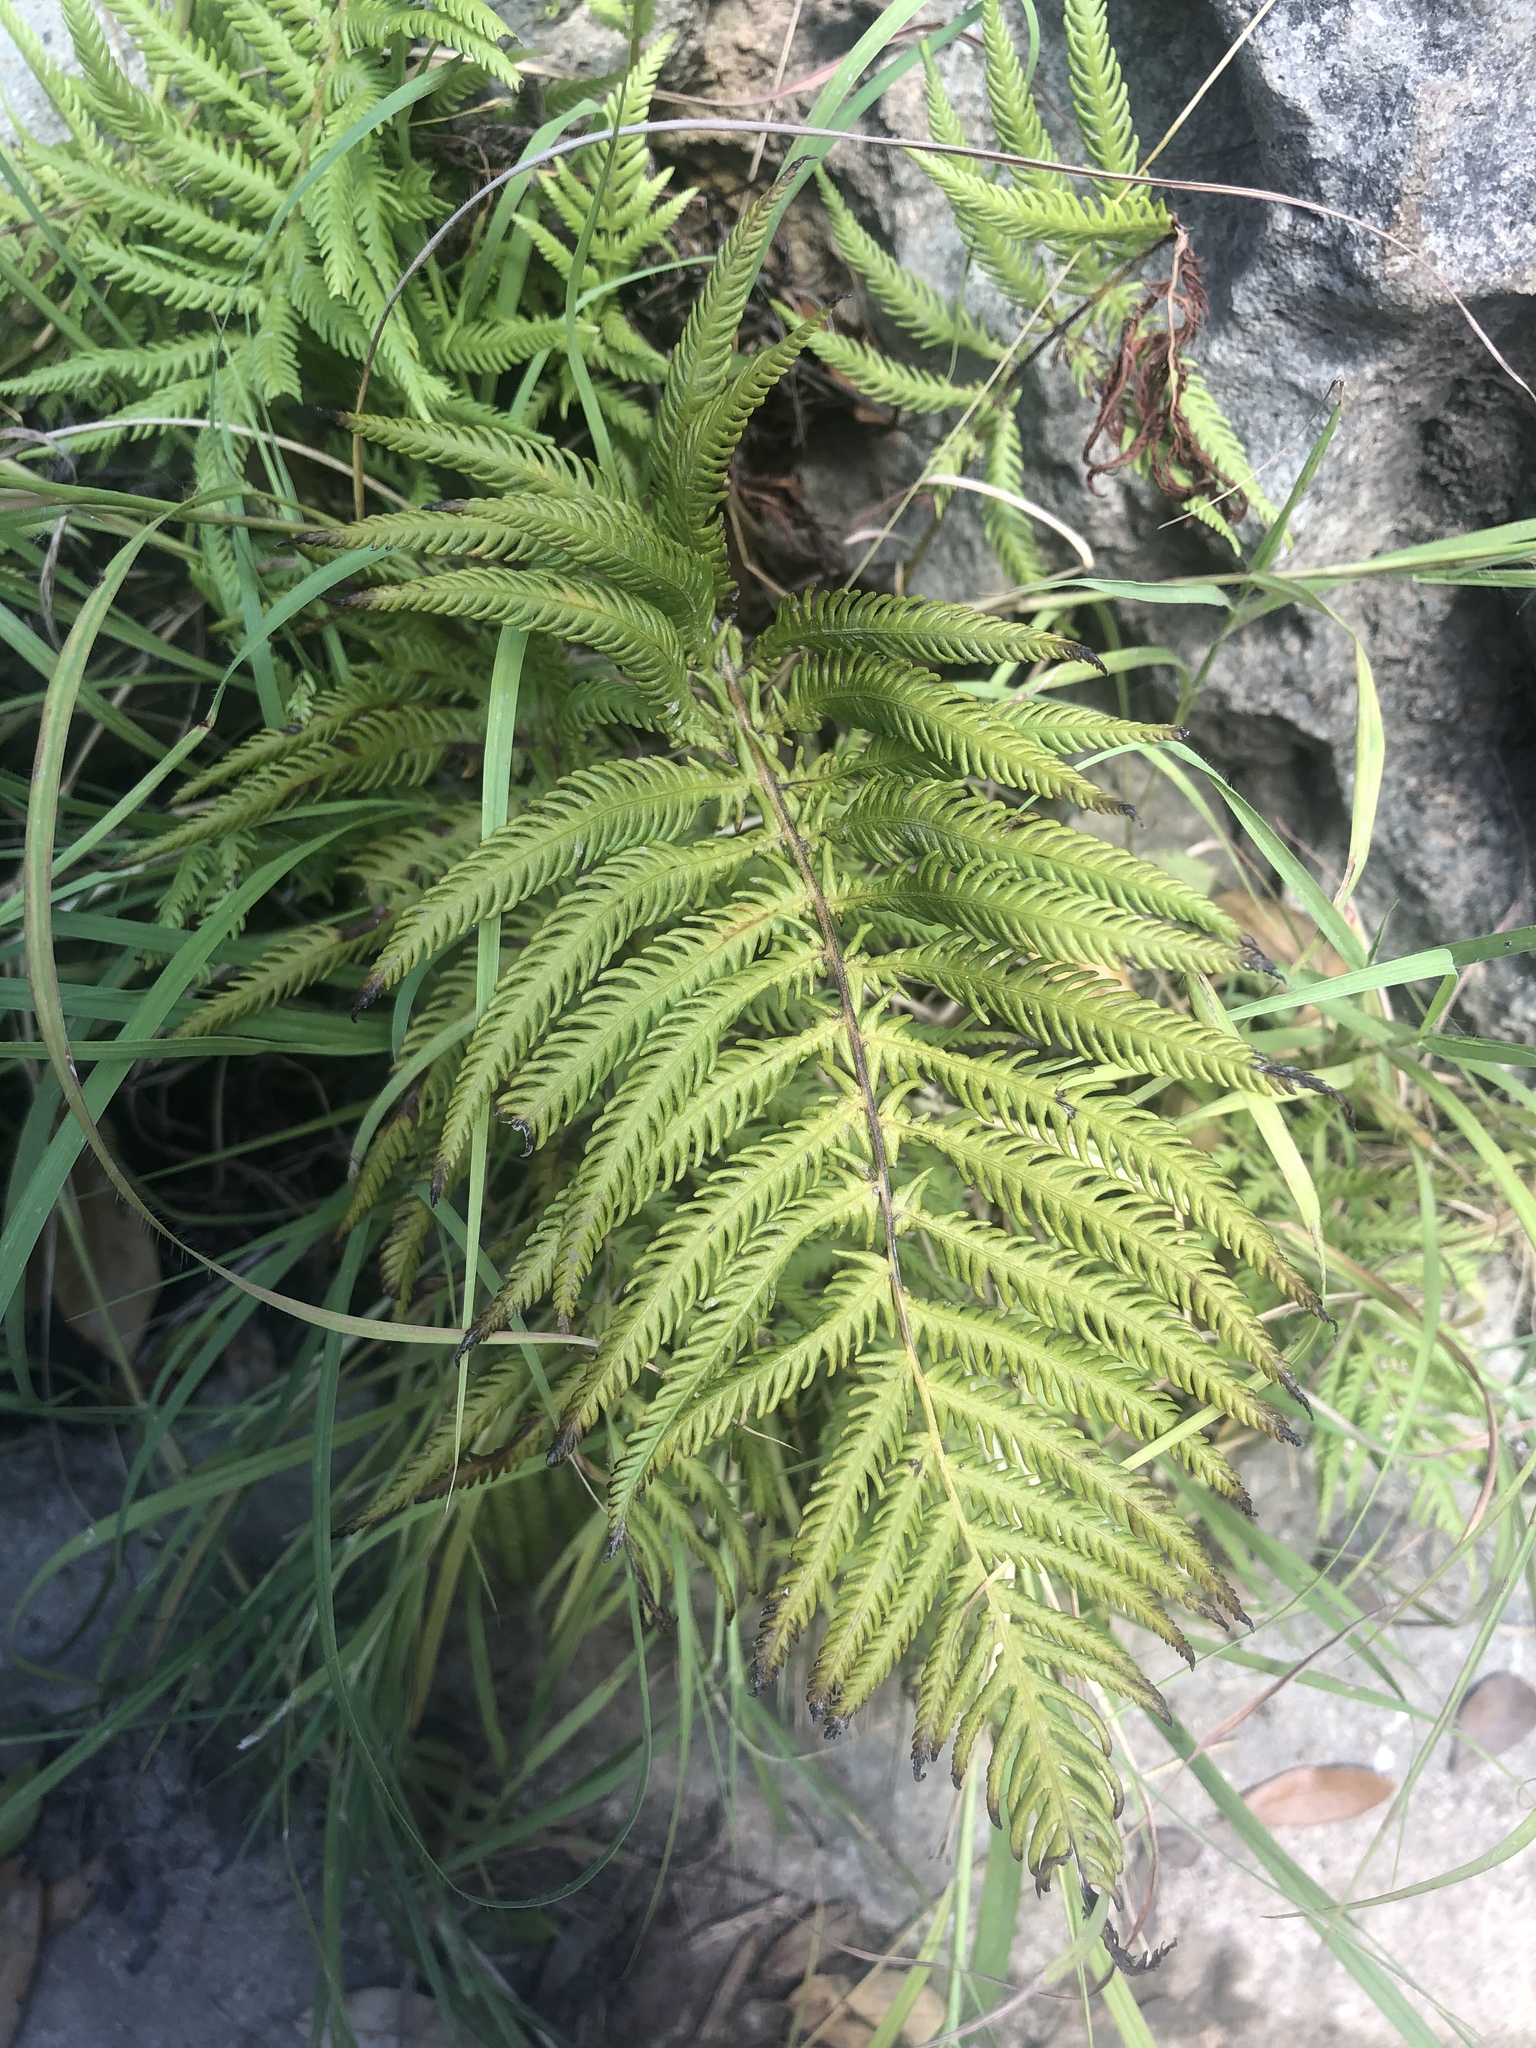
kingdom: Plantae
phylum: Tracheophyta
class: Polypodiopsida
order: Polypodiales
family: Thelypteridaceae
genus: Pelazoneuron
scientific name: Pelazoneuron ovatum
